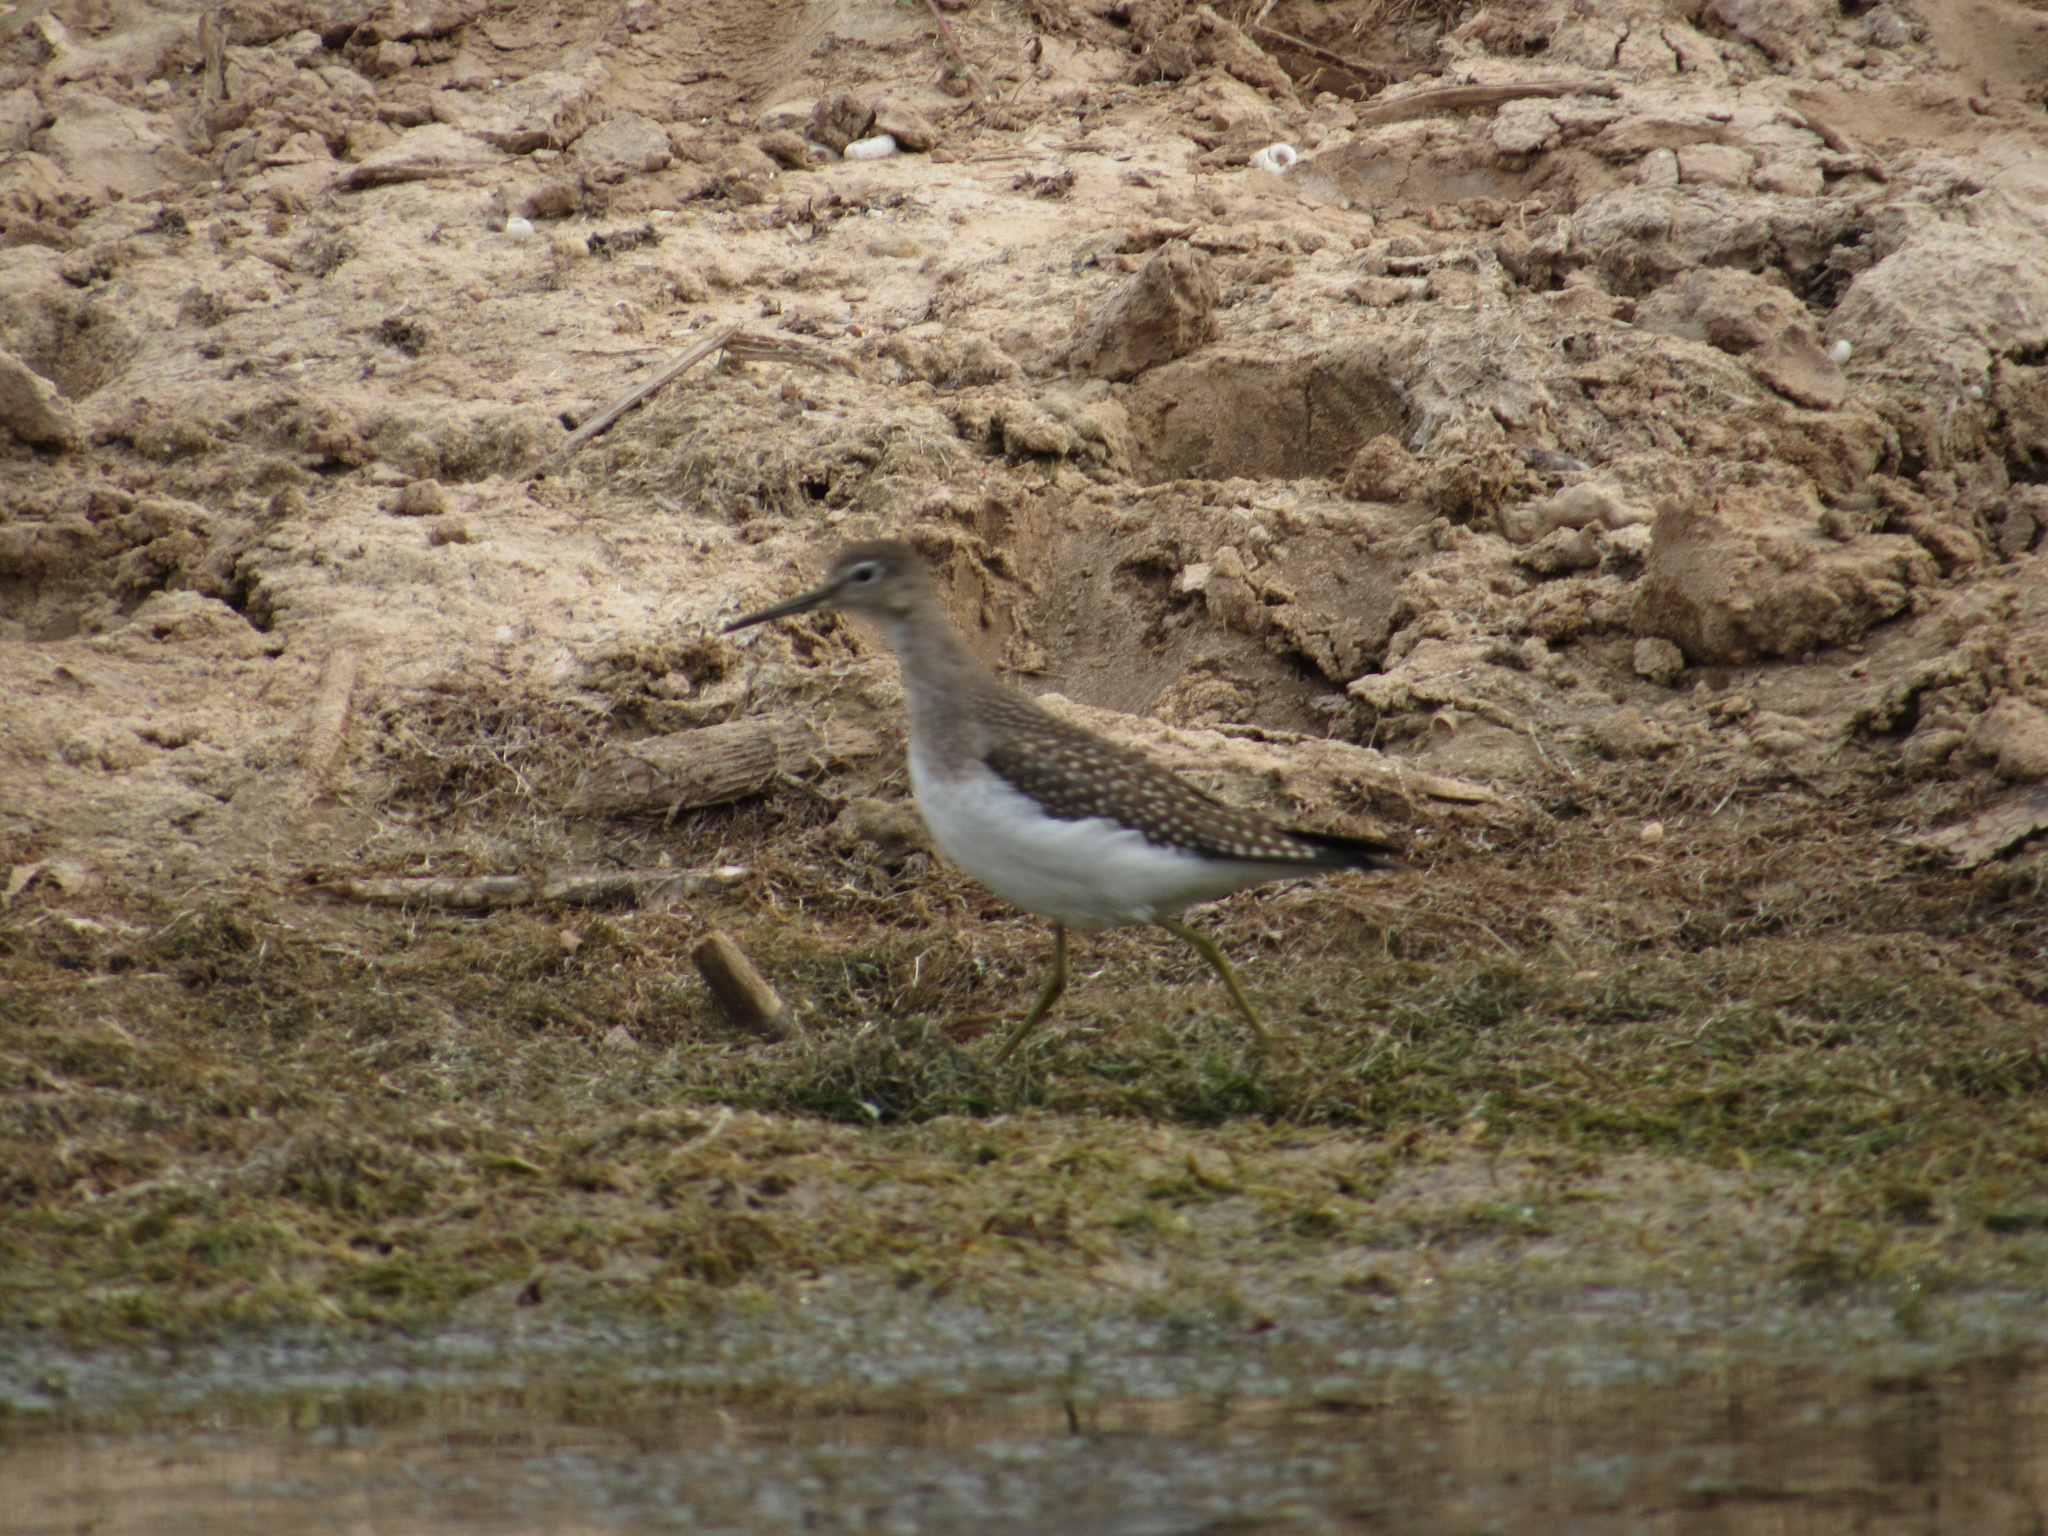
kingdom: Animalia
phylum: Chordata
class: Aves
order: Charadriiformes
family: Scolopacidae
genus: Tringa
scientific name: Tringa solitaria
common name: Solitary sandpiper
